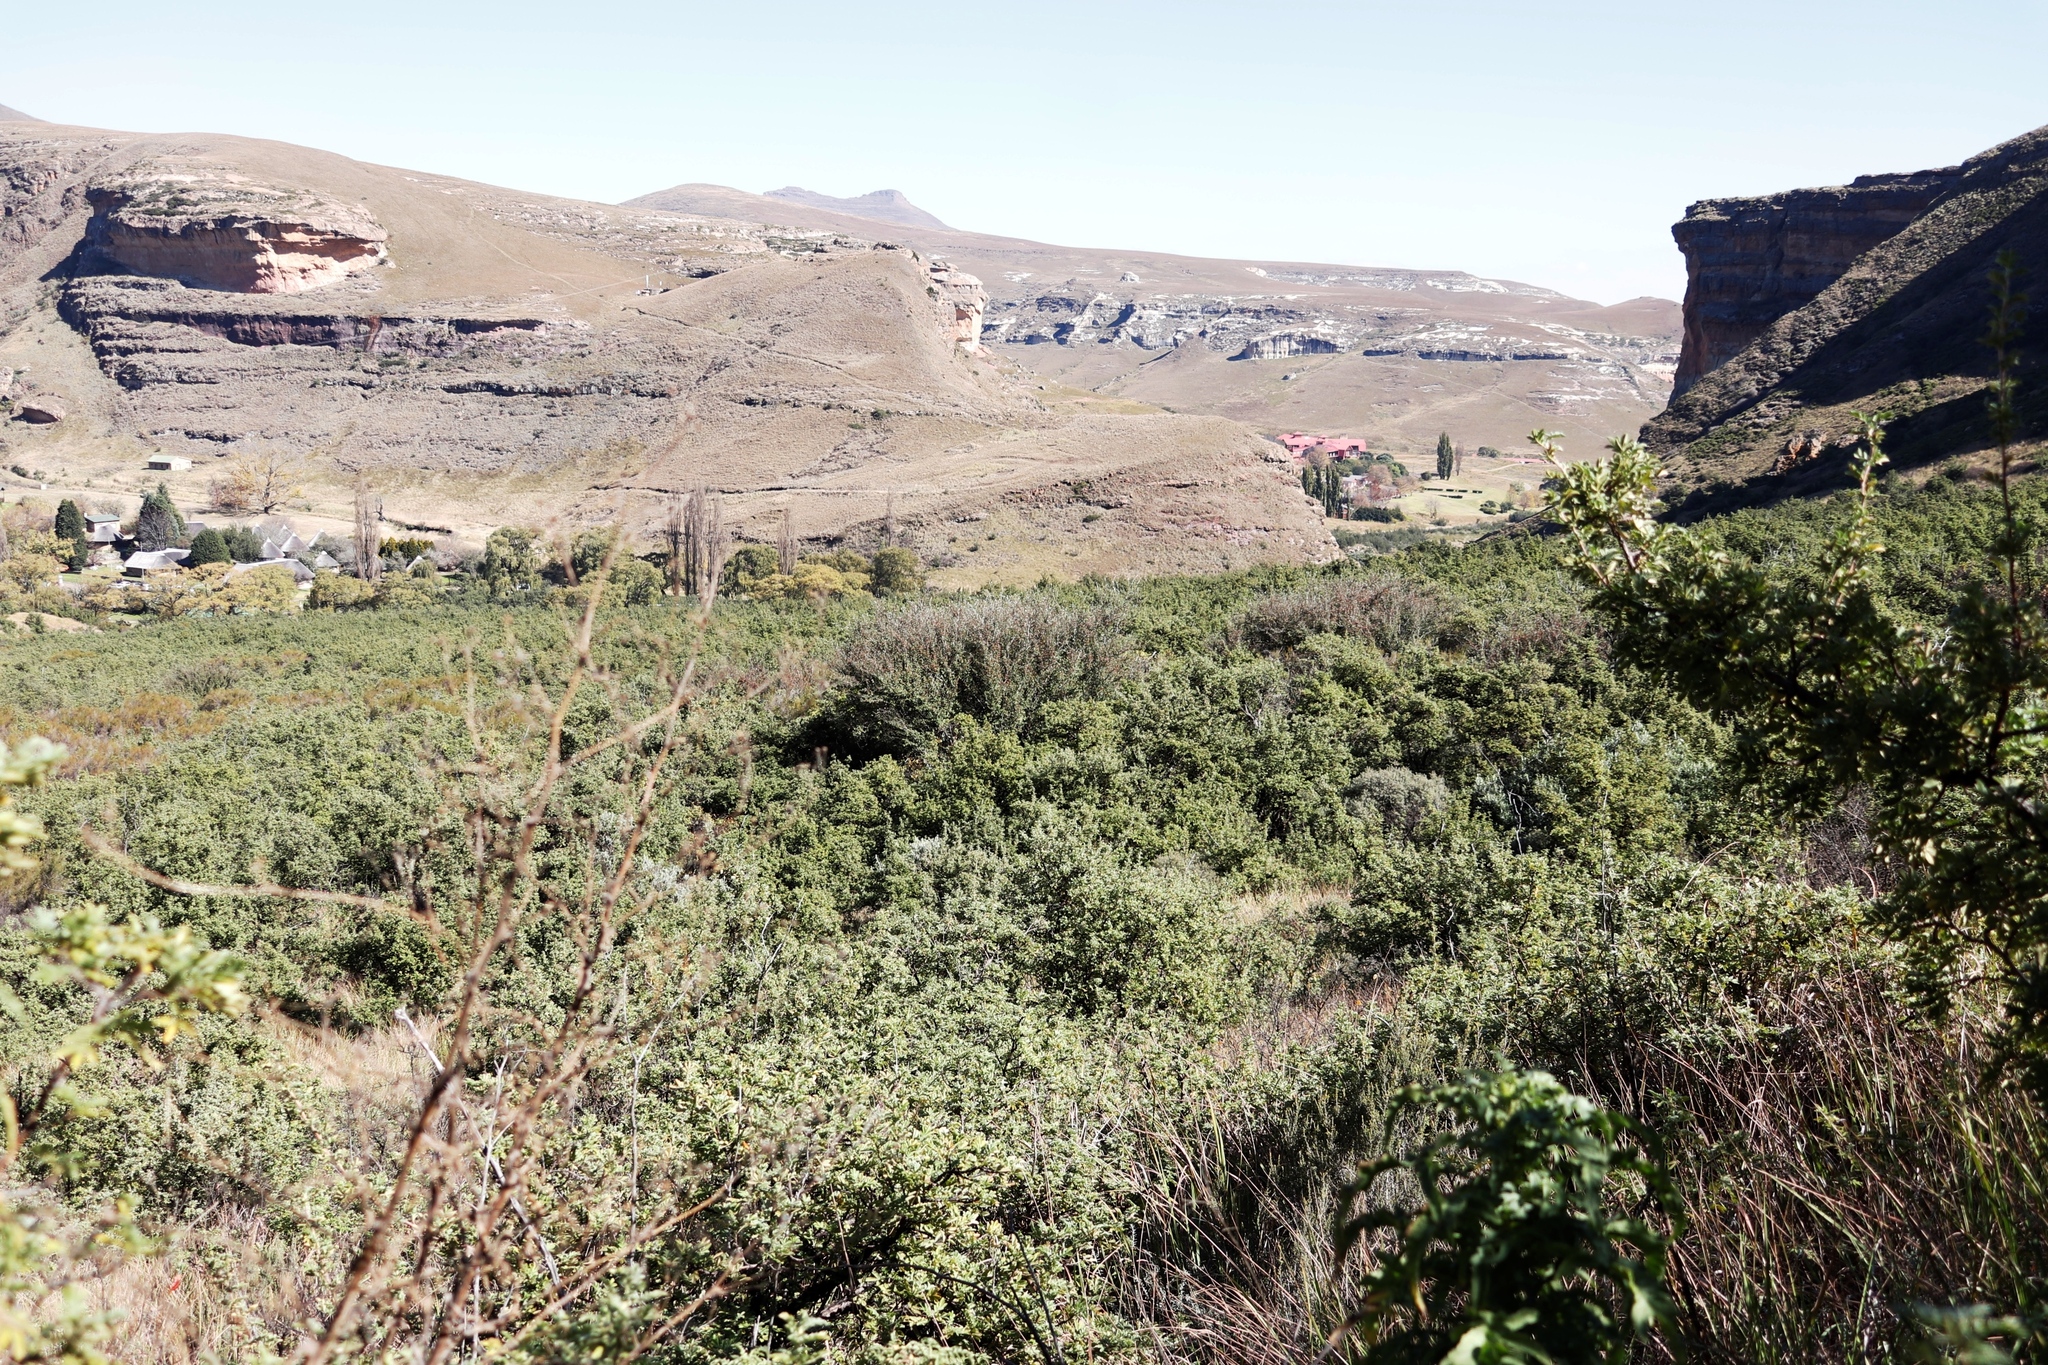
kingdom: Plantae
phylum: Tracheophyta
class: Magnoliopsida
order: Rosales
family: Rosaceae
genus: Leucosidea
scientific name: Leucosidea sericea
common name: Oldwood
